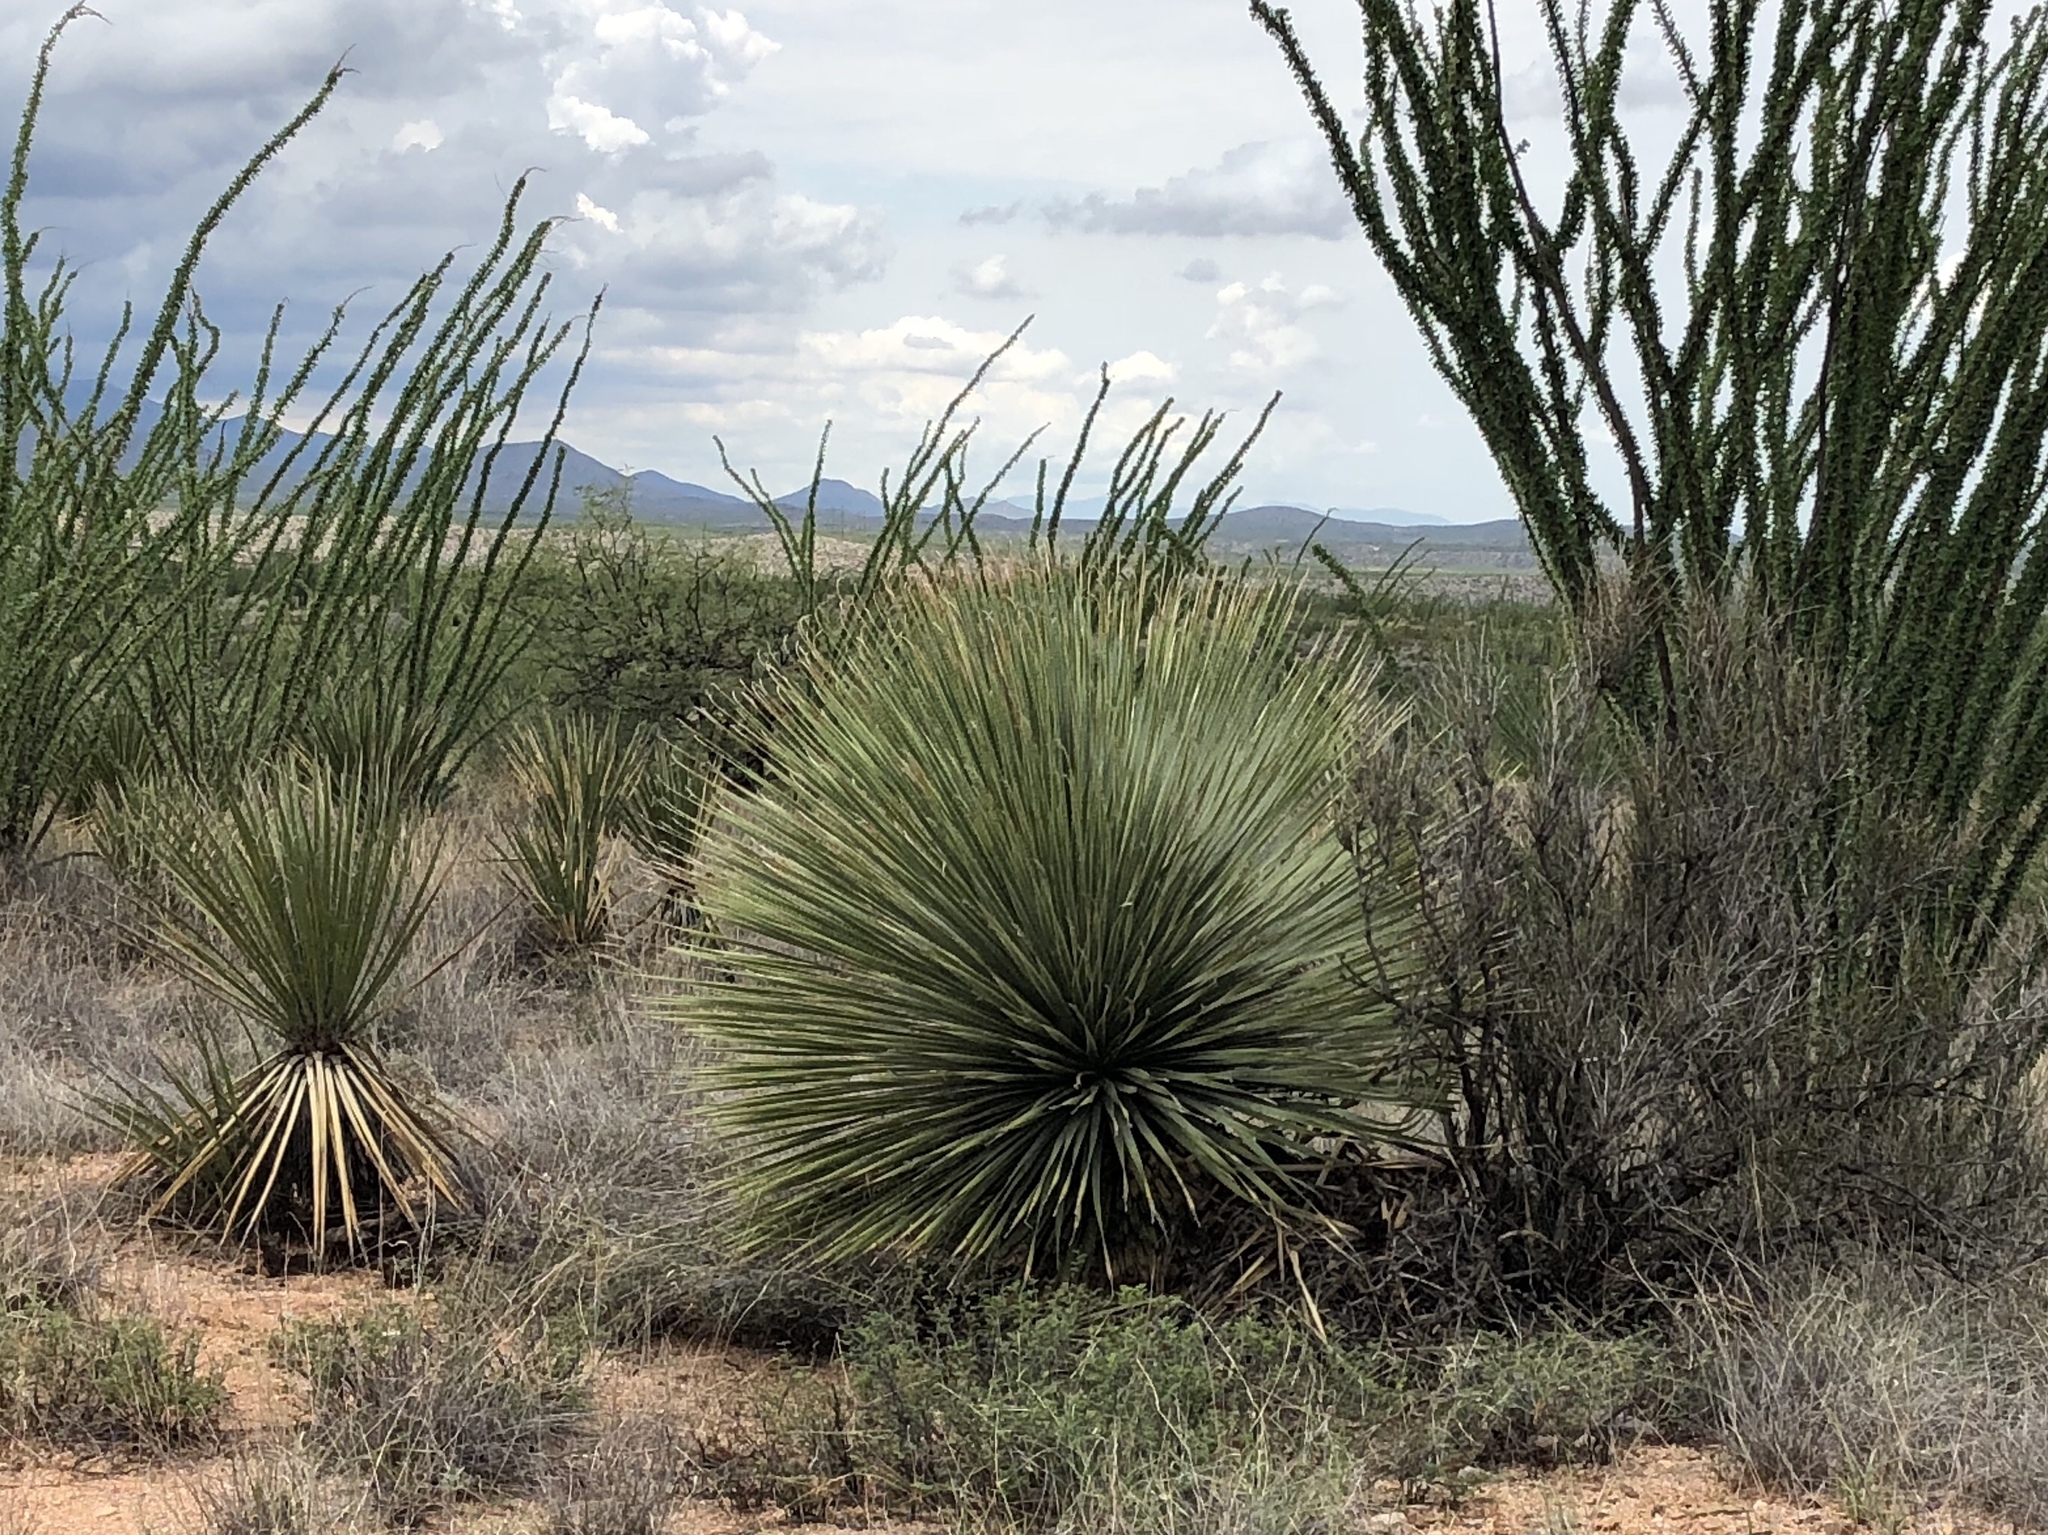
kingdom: Plantae
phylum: Tracheophyta
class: Liliopsida
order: Asparagales
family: Asparagaceae
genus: Dasylirion
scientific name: Dasylirion wheeleri
